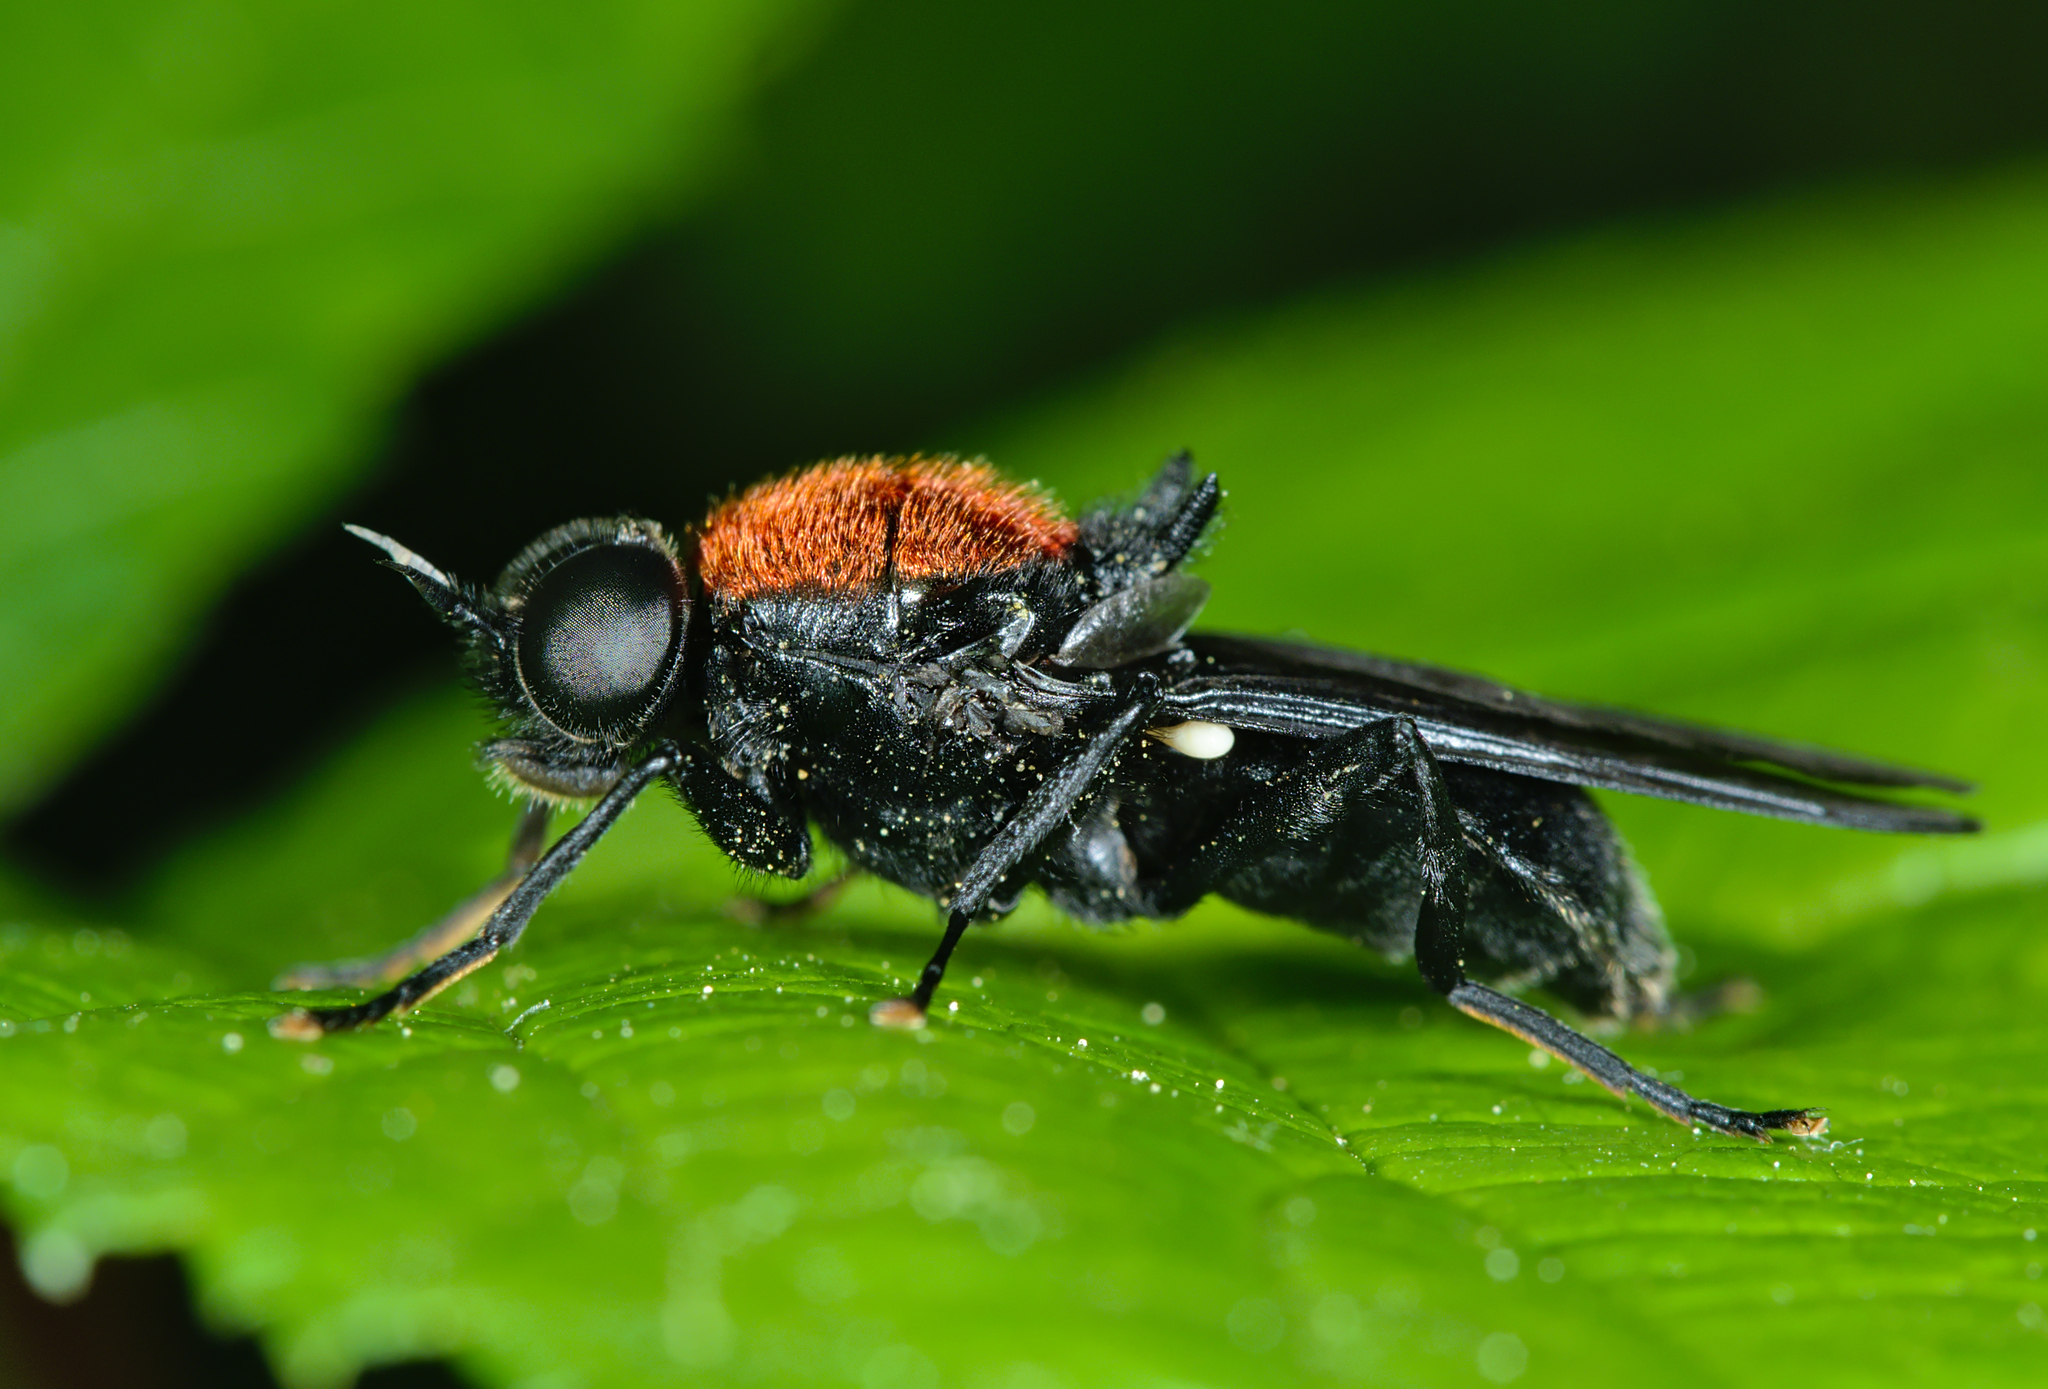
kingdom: Animalia
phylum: Arthropoda
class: Insecta
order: Diptera
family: Stratiomyidae
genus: Clitellaria
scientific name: Clitellaria ephippium
